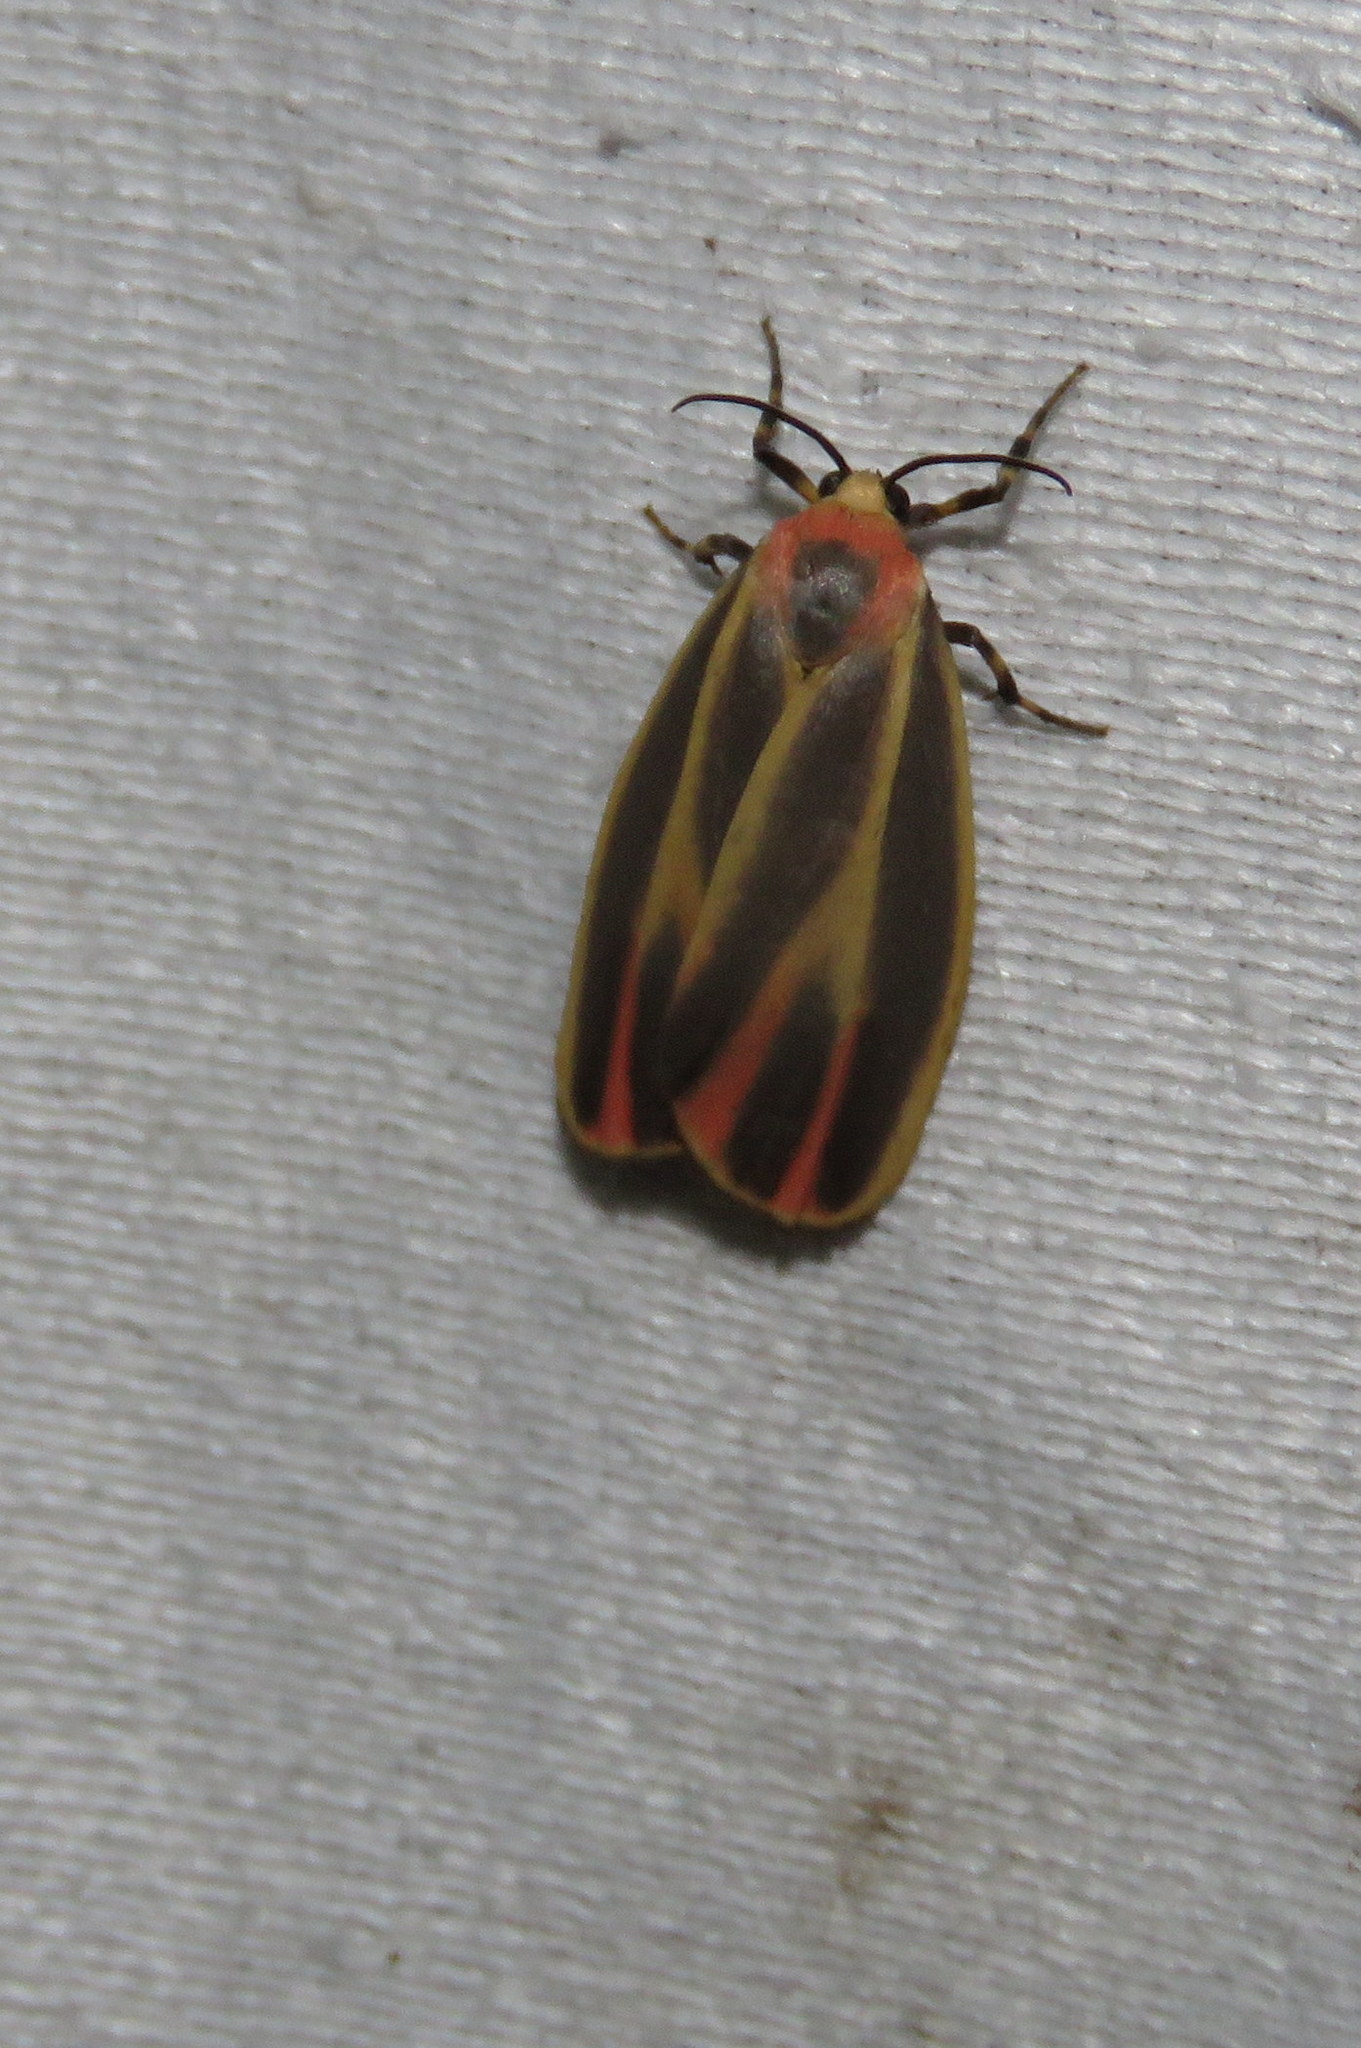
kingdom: Animalia
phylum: Arthropoda
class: Insecta
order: Lepidoptera
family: Erebidae
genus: Hypoprepia
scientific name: Hypoprepia fucosa
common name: Painted lichen moth
